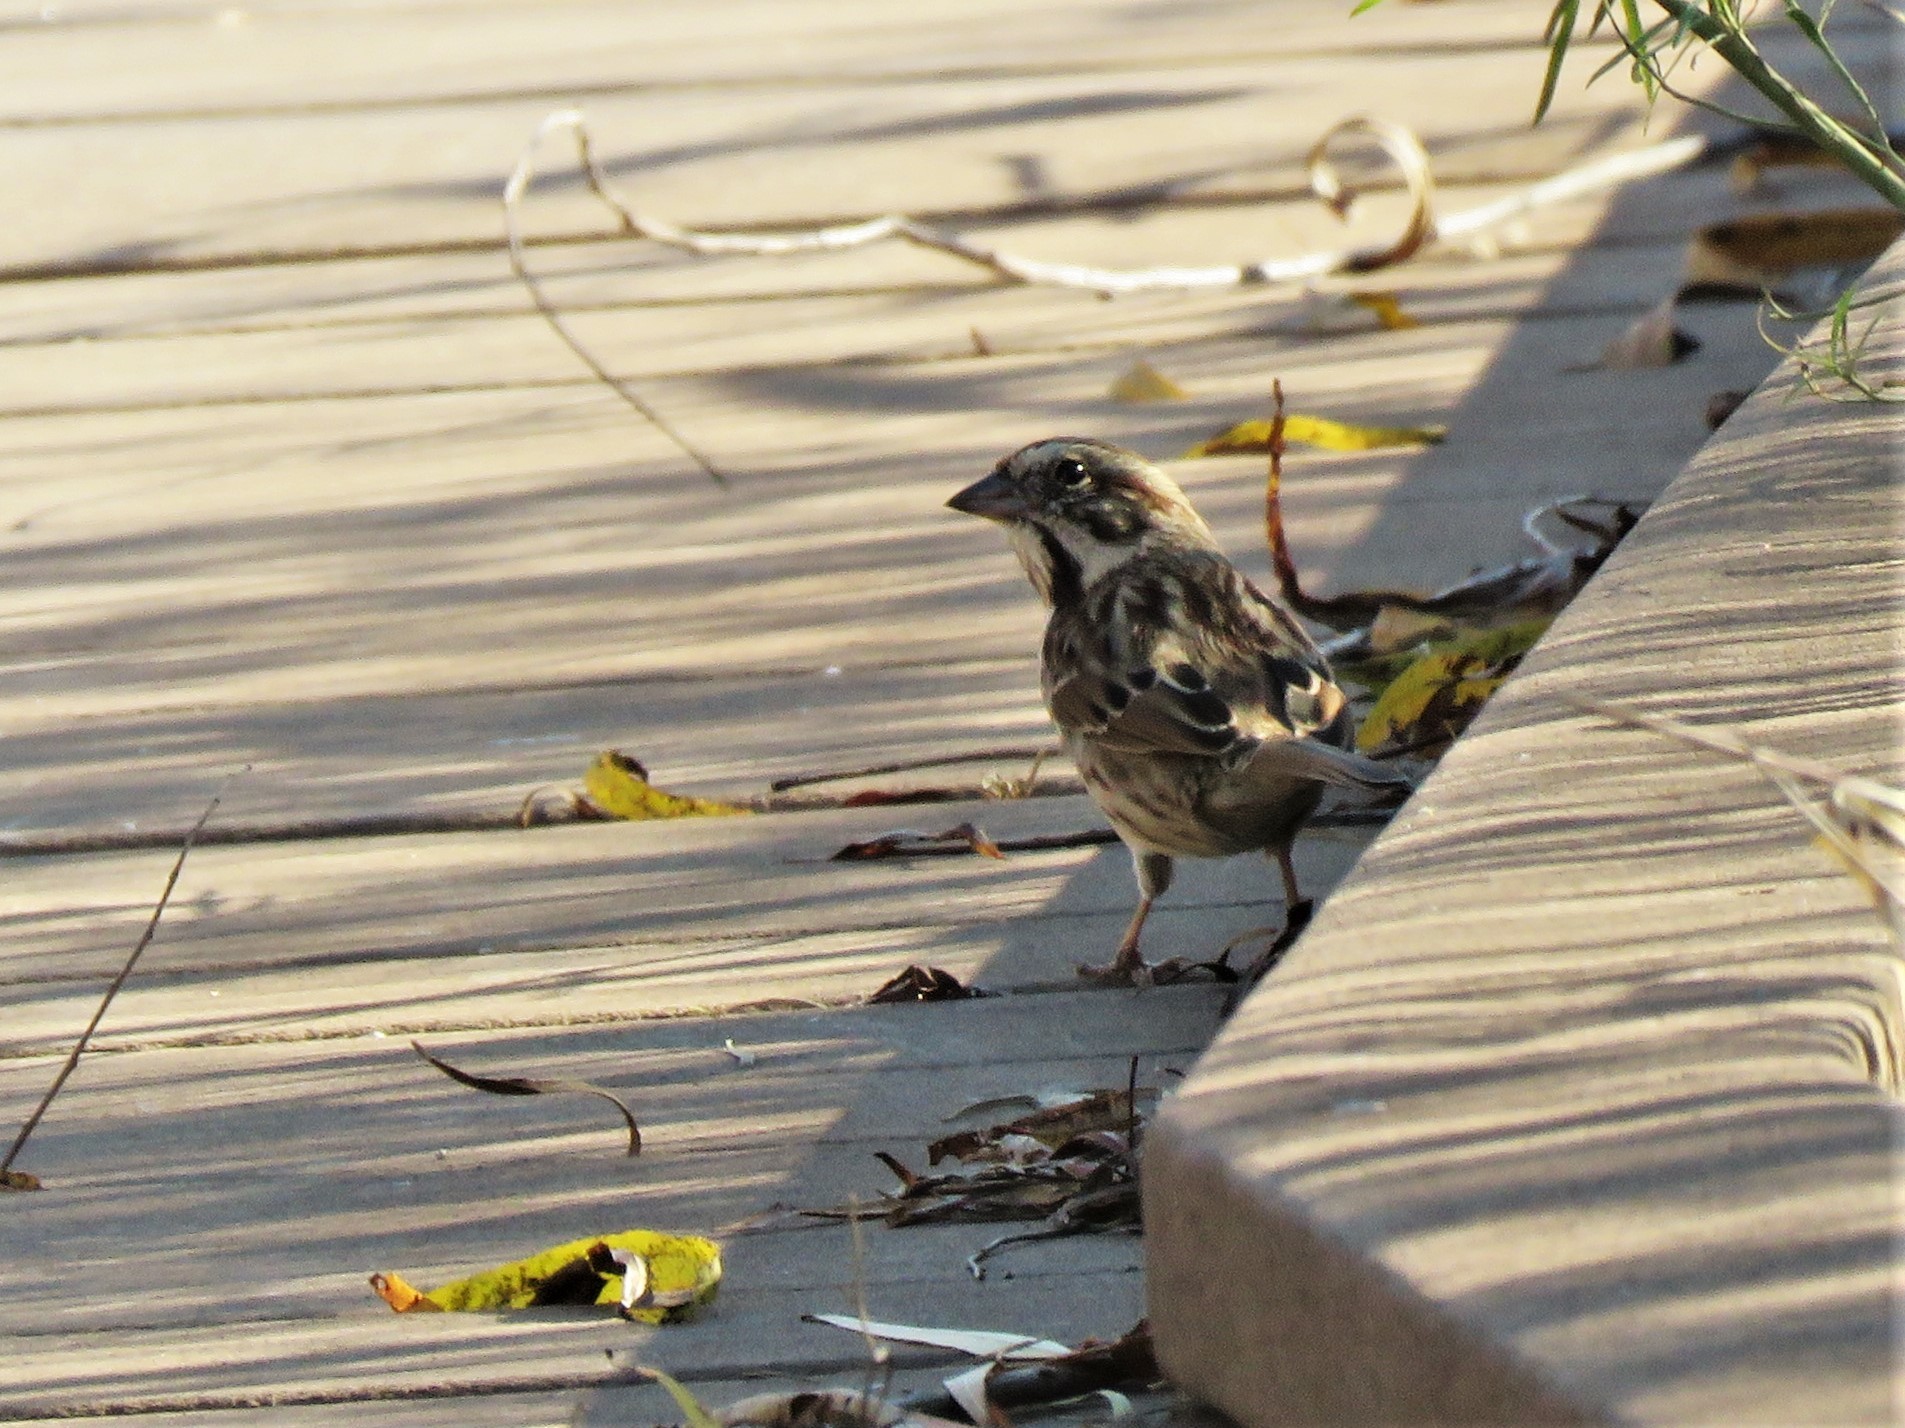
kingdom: Animalia
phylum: Chordata
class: Aves
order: Passeriformes
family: Passerellidae
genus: Melospiza
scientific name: Melospiza melodia
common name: Song sparrow
